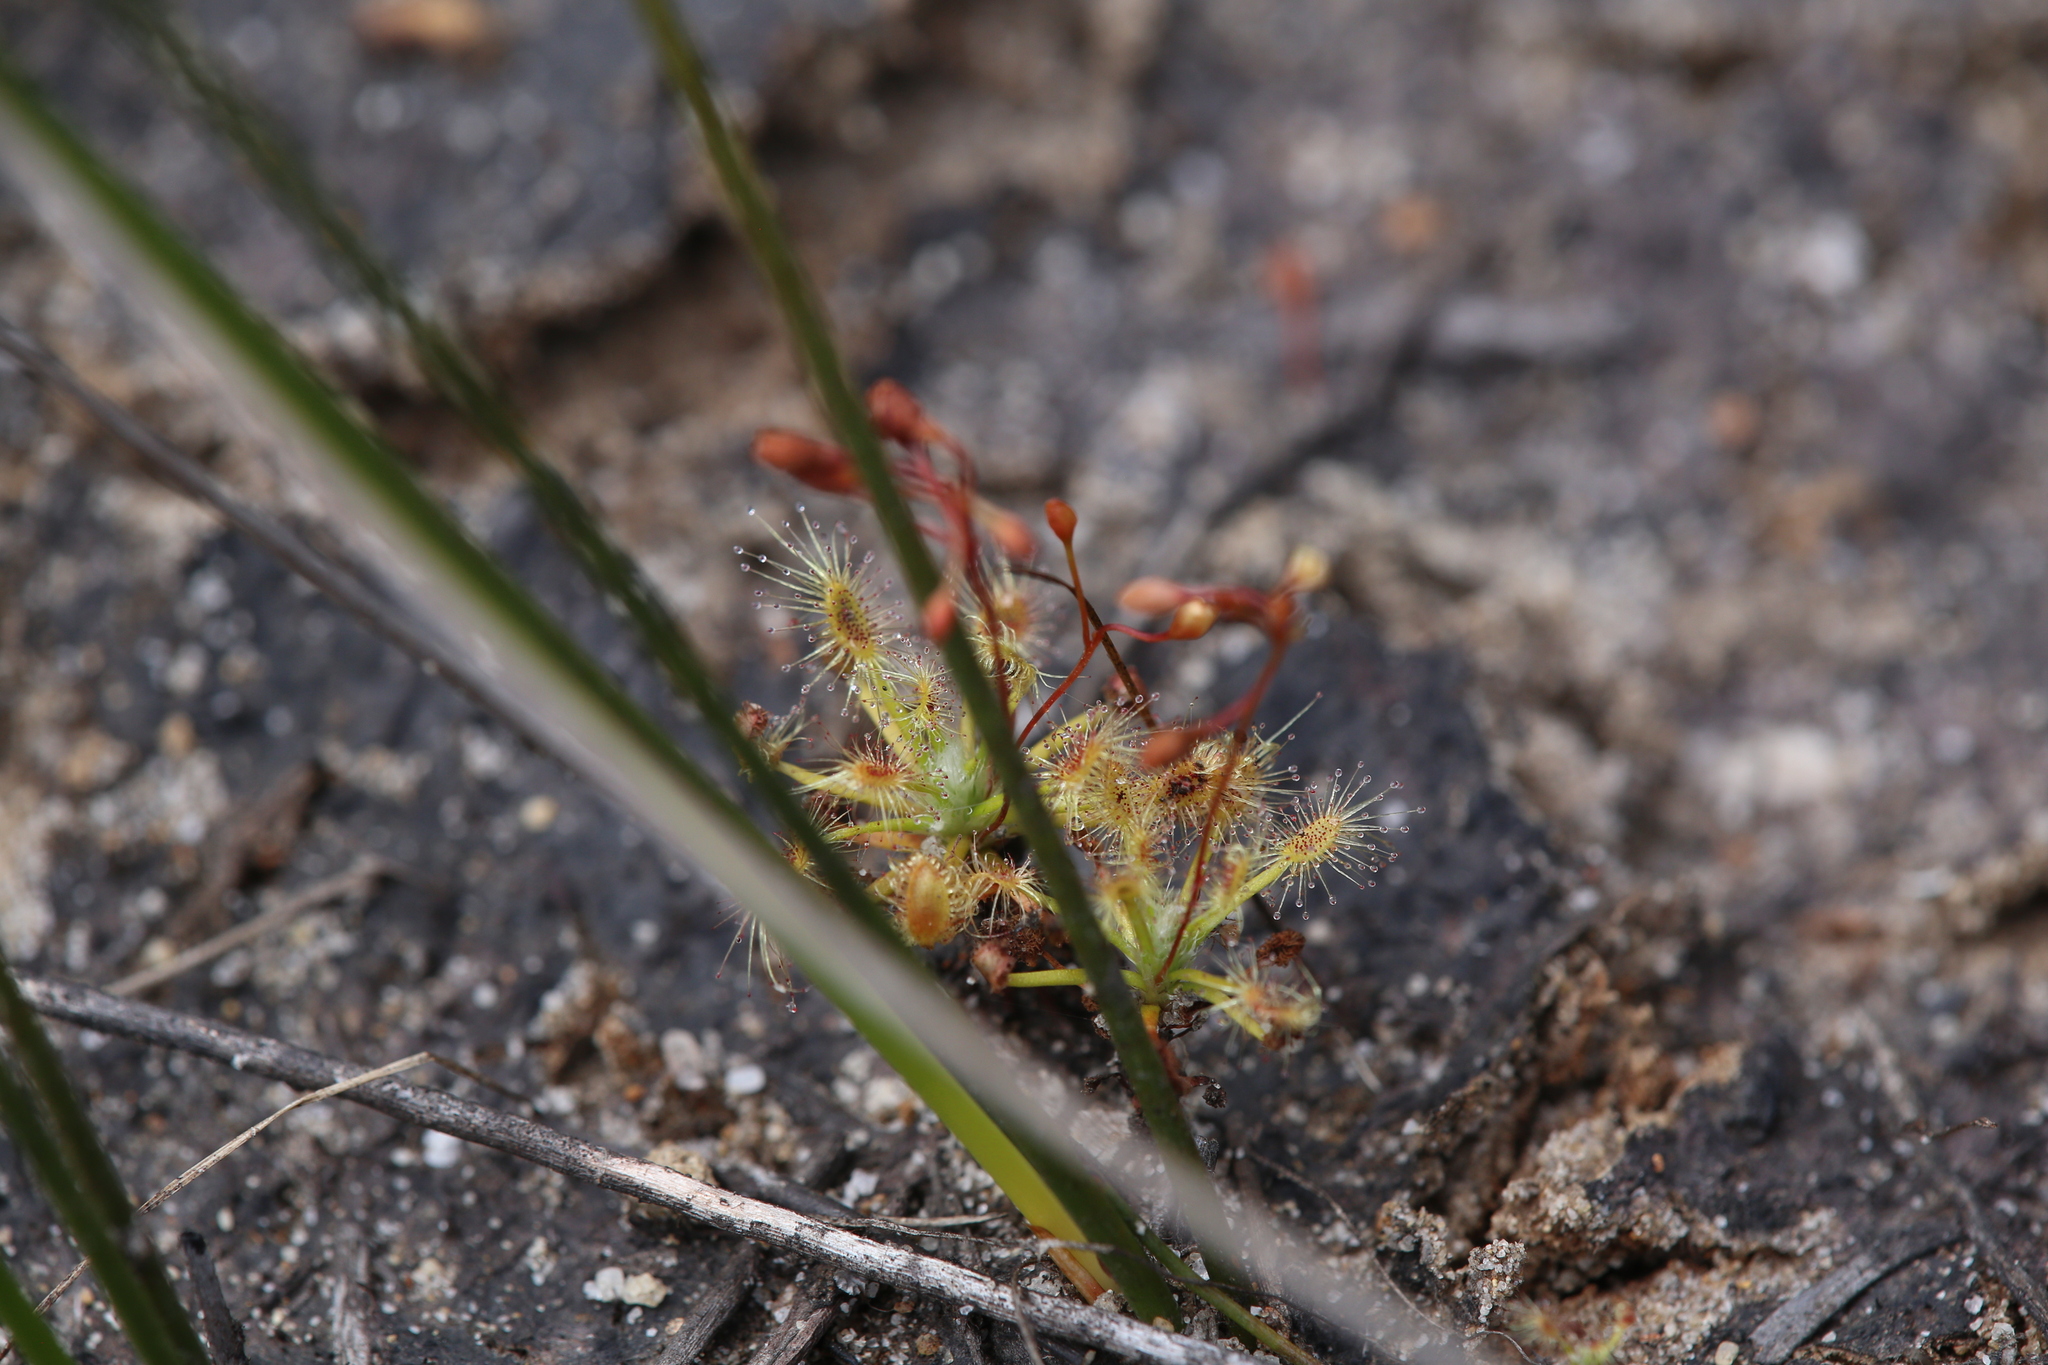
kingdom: Plantae
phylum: Tracheophyta
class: Magnoliopsida
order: Caryophyllales
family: Droseraceae
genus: Drosera
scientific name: Drosera dichrosepala
